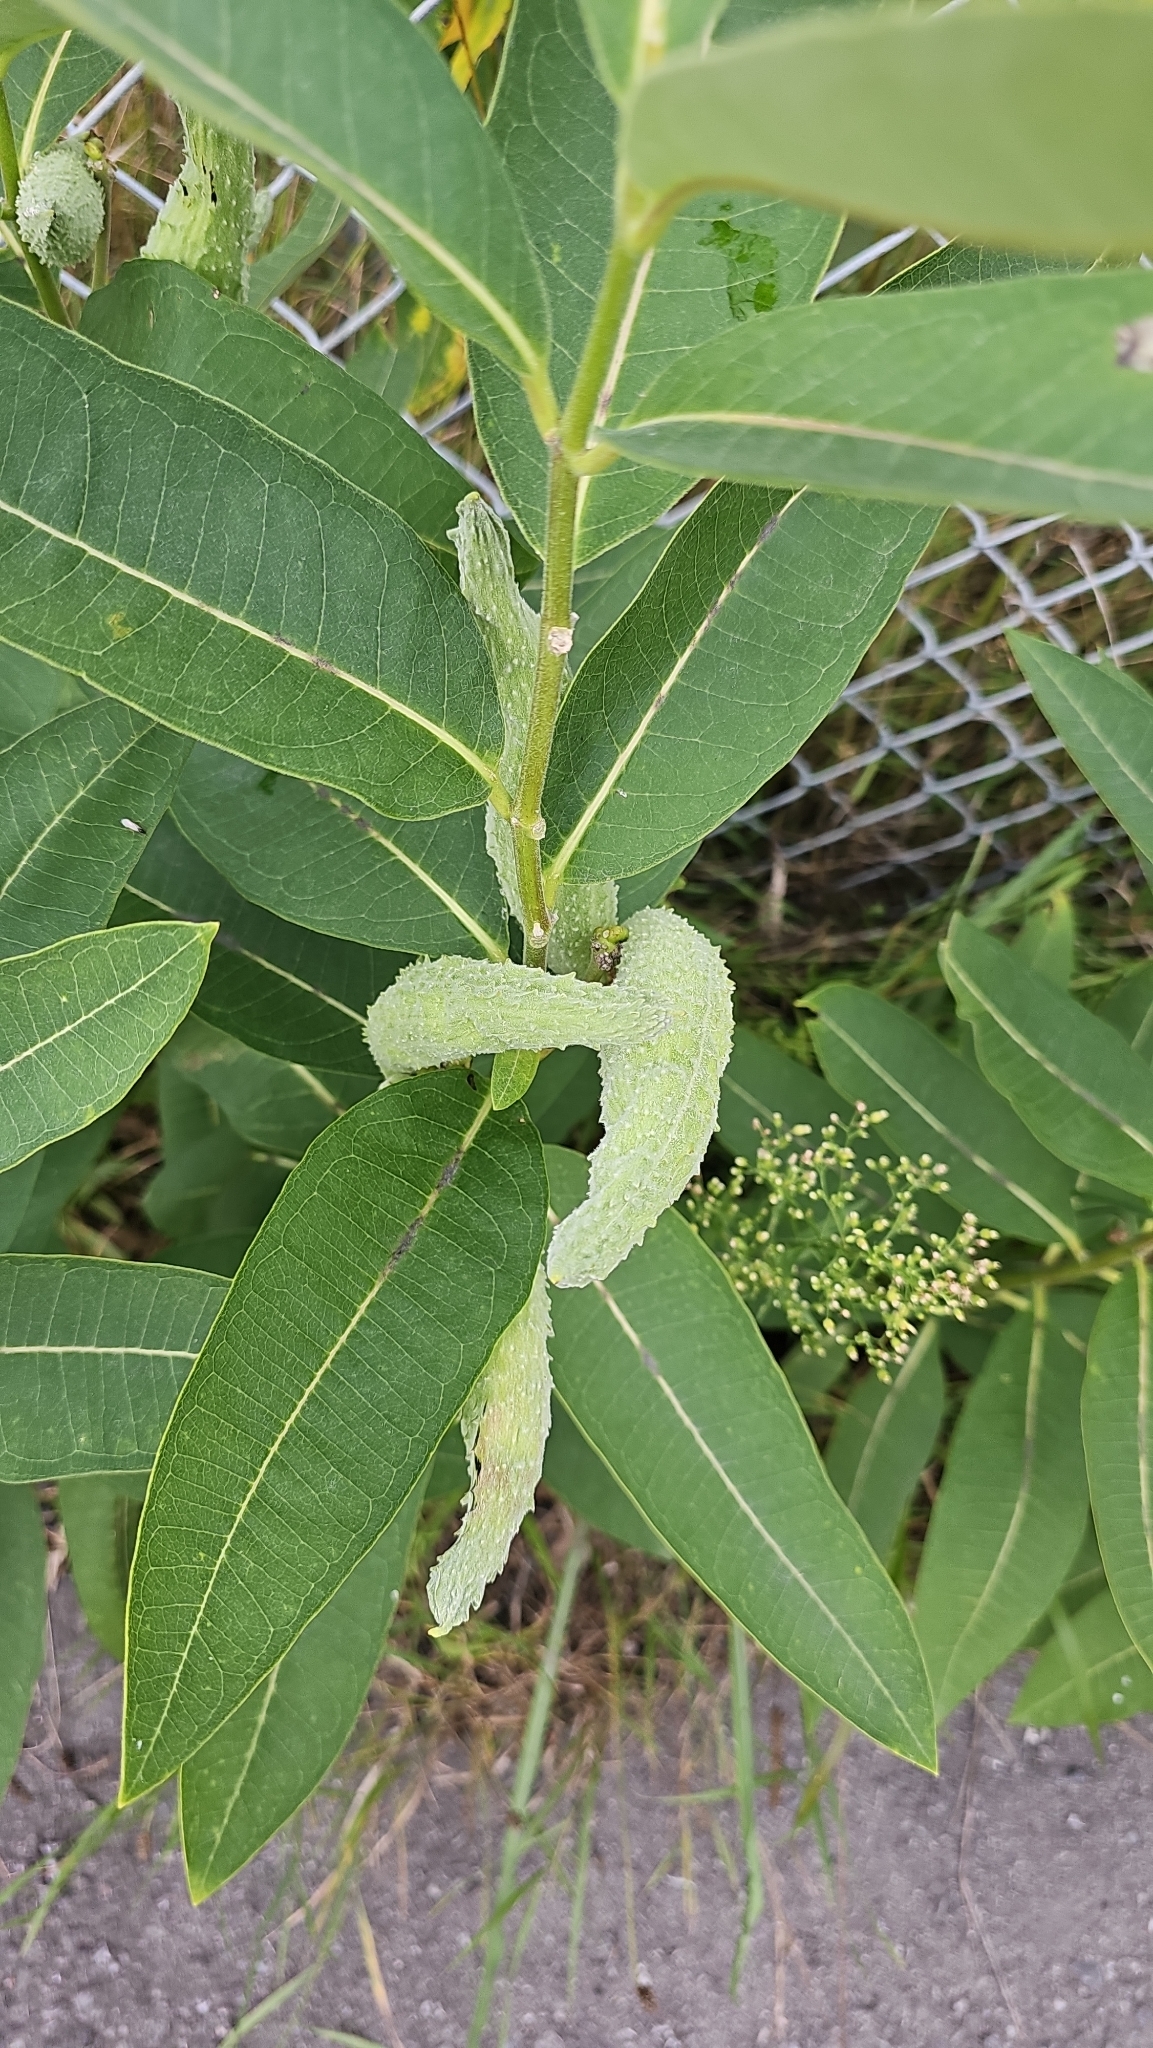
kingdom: Plantae
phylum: Tracheophyta
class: Magnoliopsida
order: Gentianales
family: Apocynaceae
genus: Asclepias
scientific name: Asclepias syriaca
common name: Common milkweed
